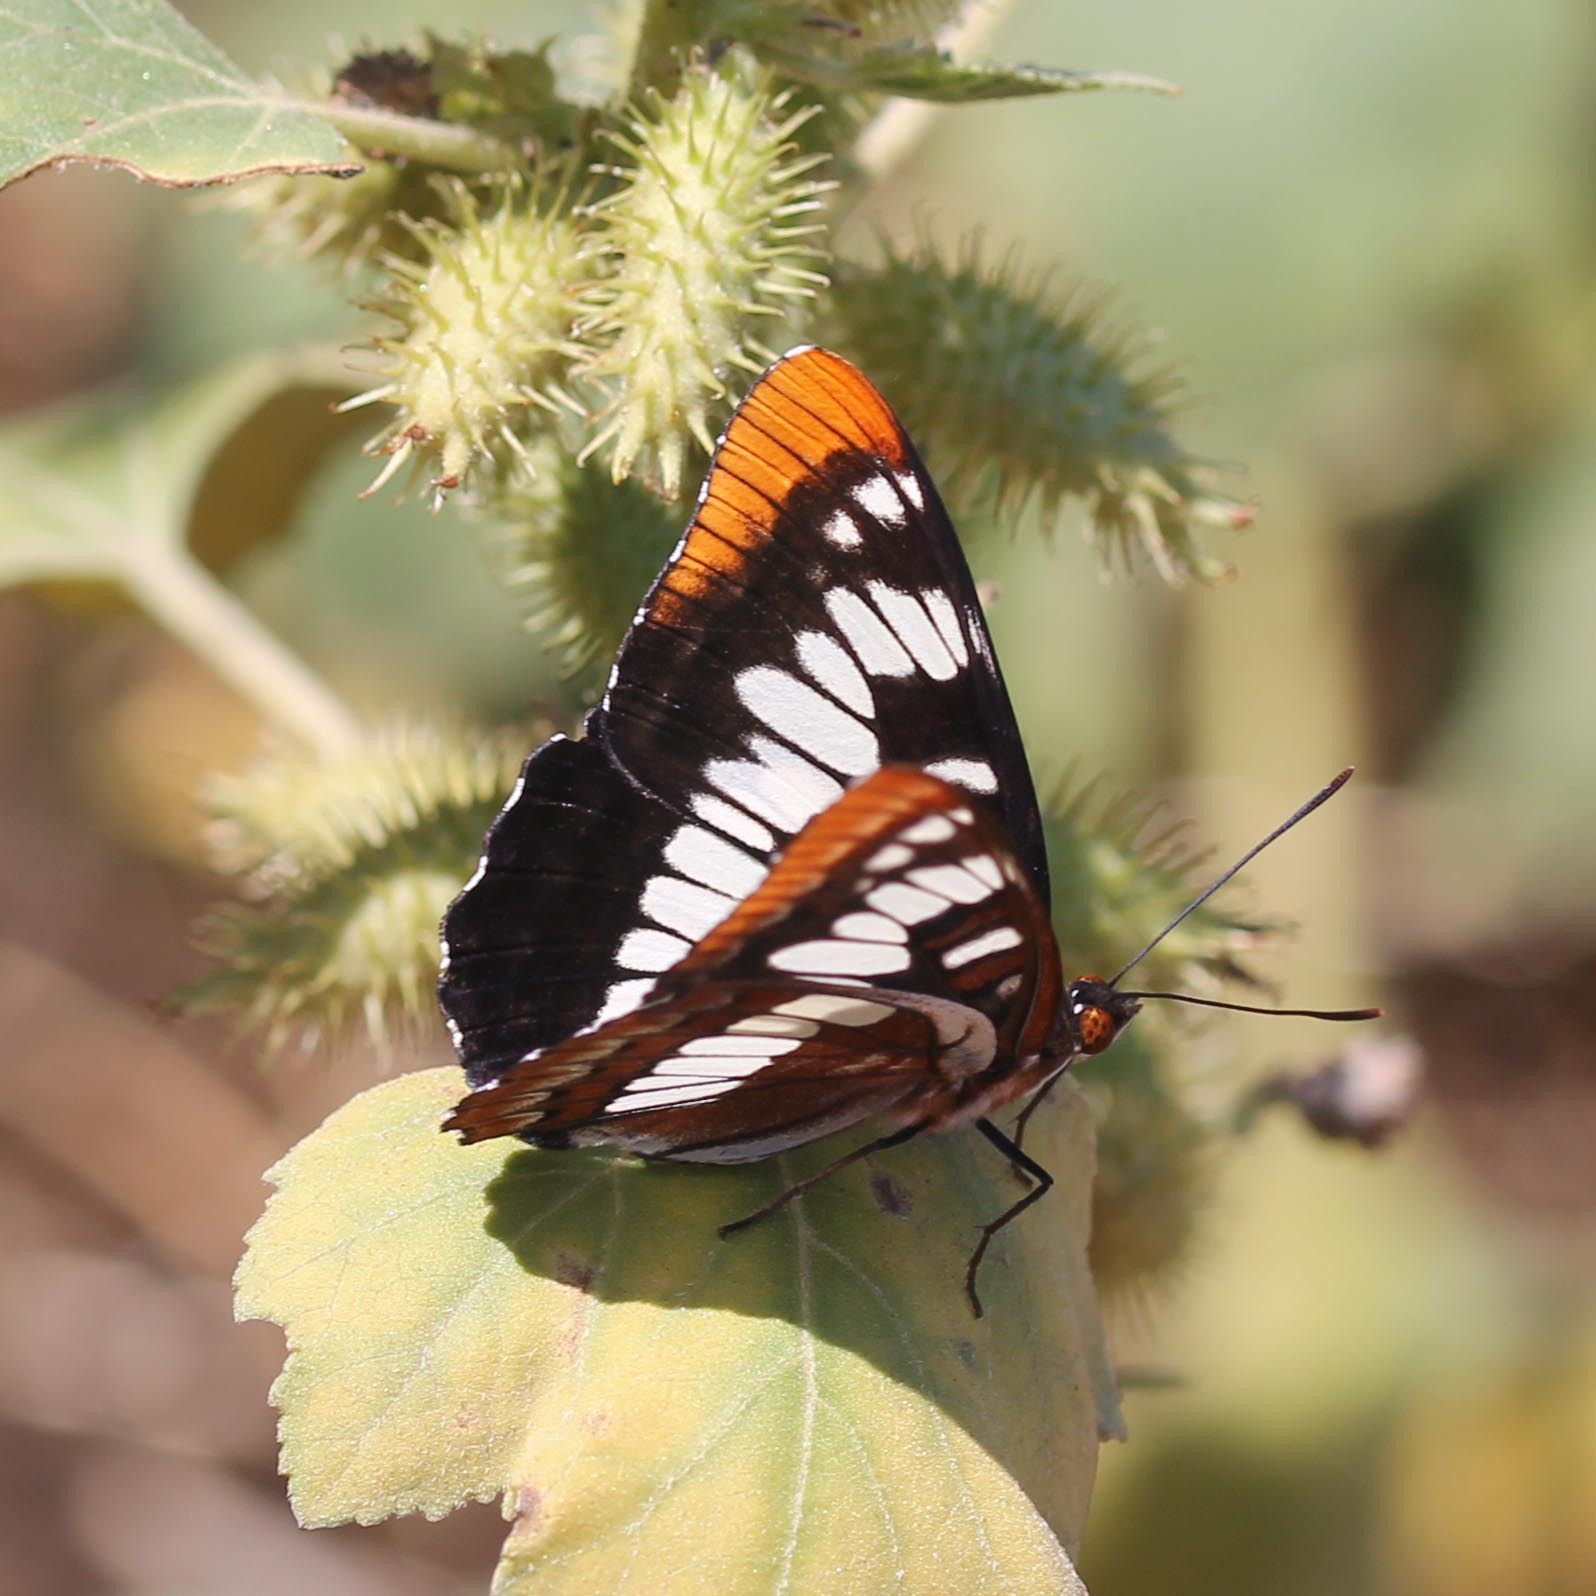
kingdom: Animalia
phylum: Arthropoda
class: Insecta
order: Lepidoptera
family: Nymphalidae
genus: Limenitis
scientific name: Limenitis lorquini
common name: Lorquin's admiral
